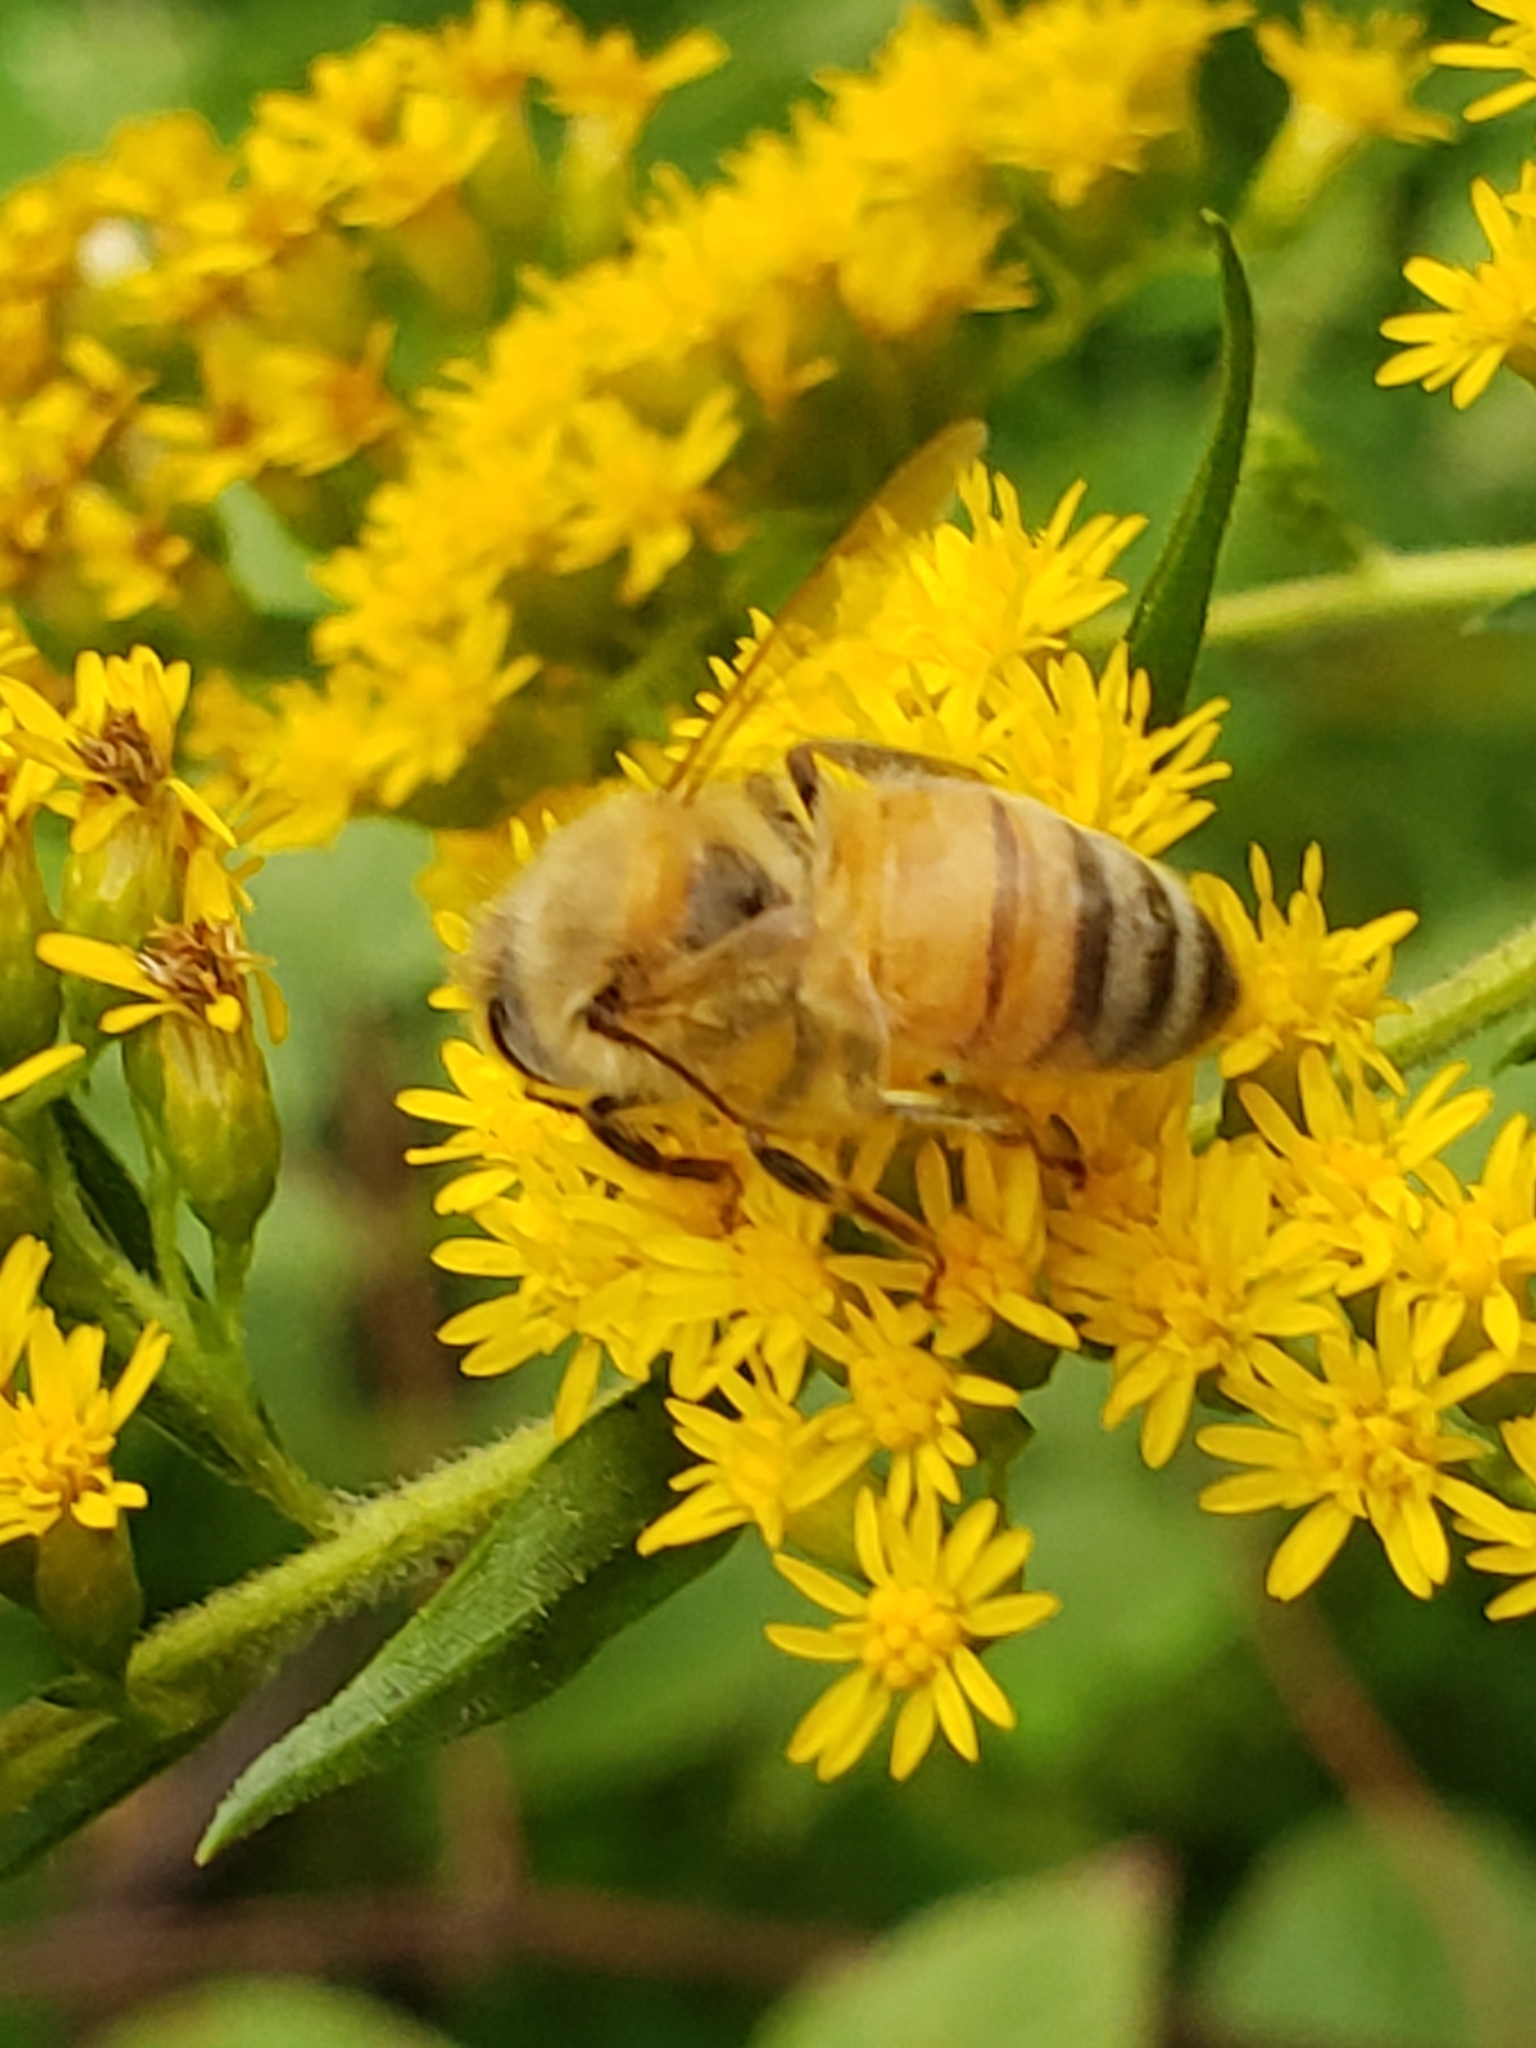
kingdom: Animalia
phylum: Arthropoda
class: Insecta
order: Hymenoptera
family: Apidae
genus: Apis
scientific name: Apis mellifera
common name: Honey bee
